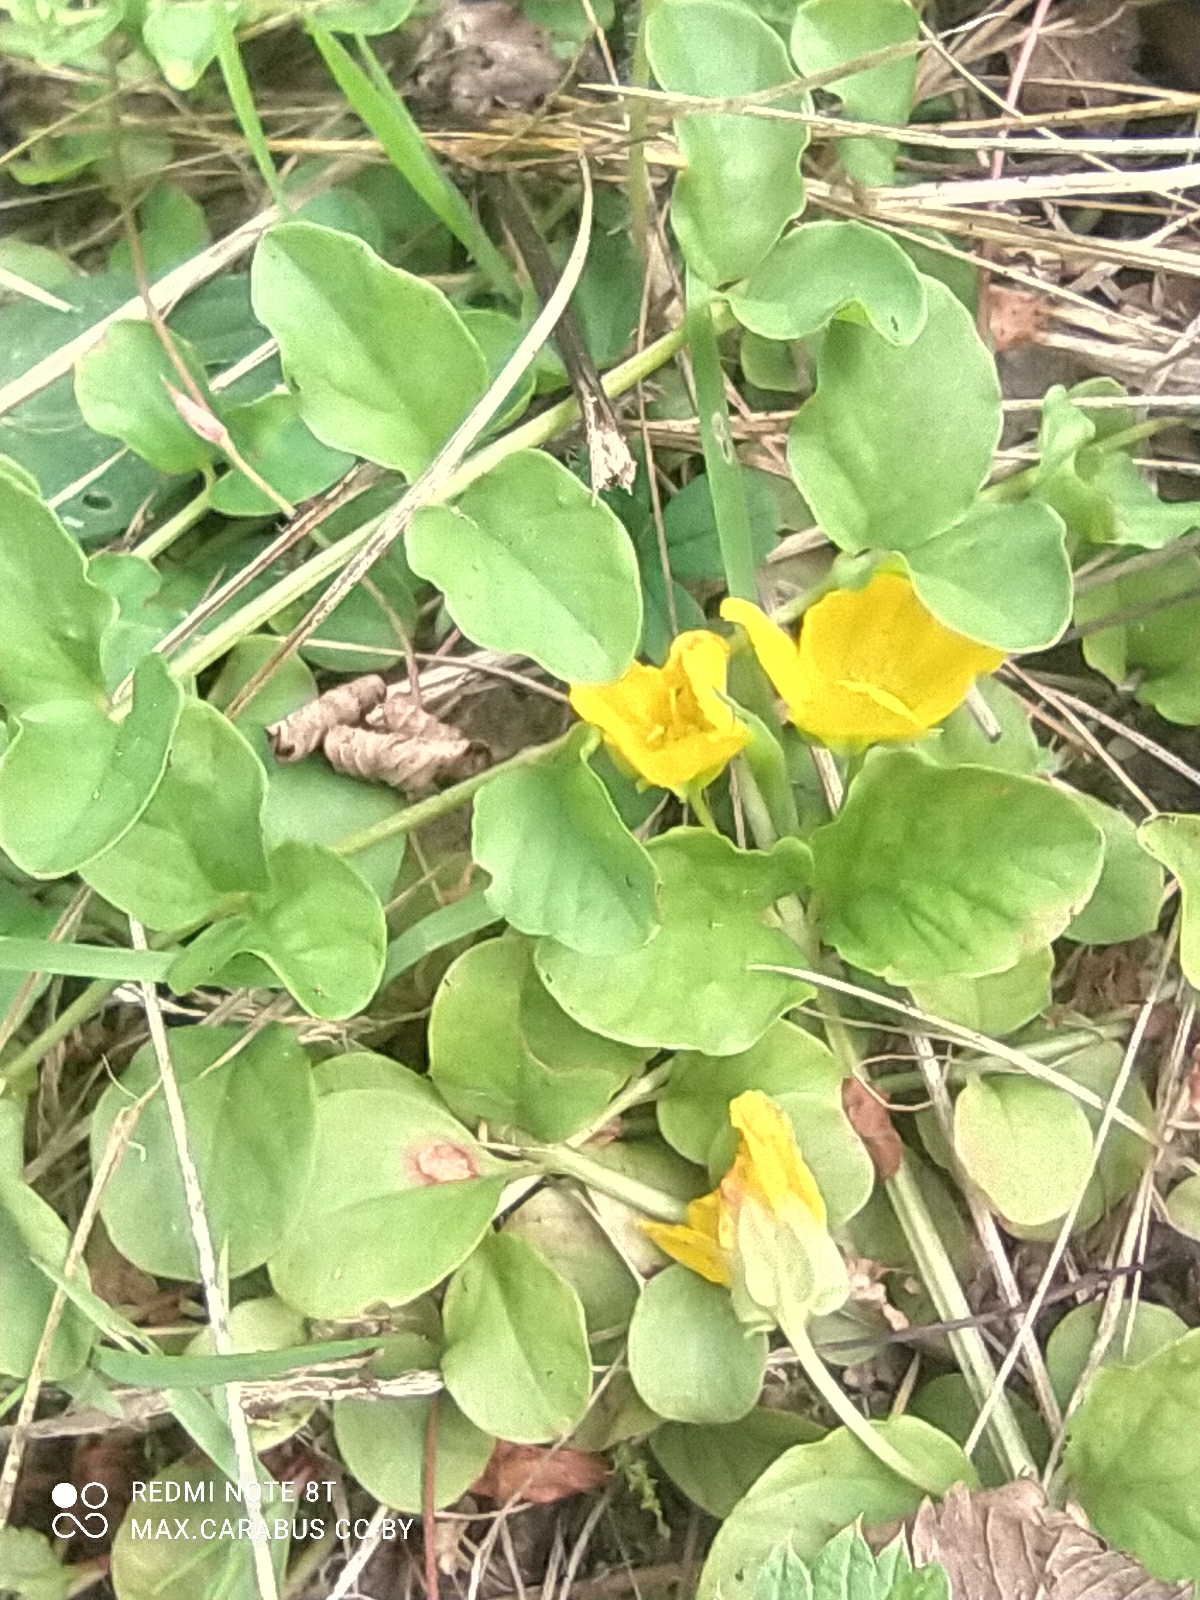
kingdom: Plantae
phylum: Tracheophyta
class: Magnoliopsida
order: Ericales
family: Primulaceae
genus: Lysimachia
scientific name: Lysimachia nummularia
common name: Moneywort
